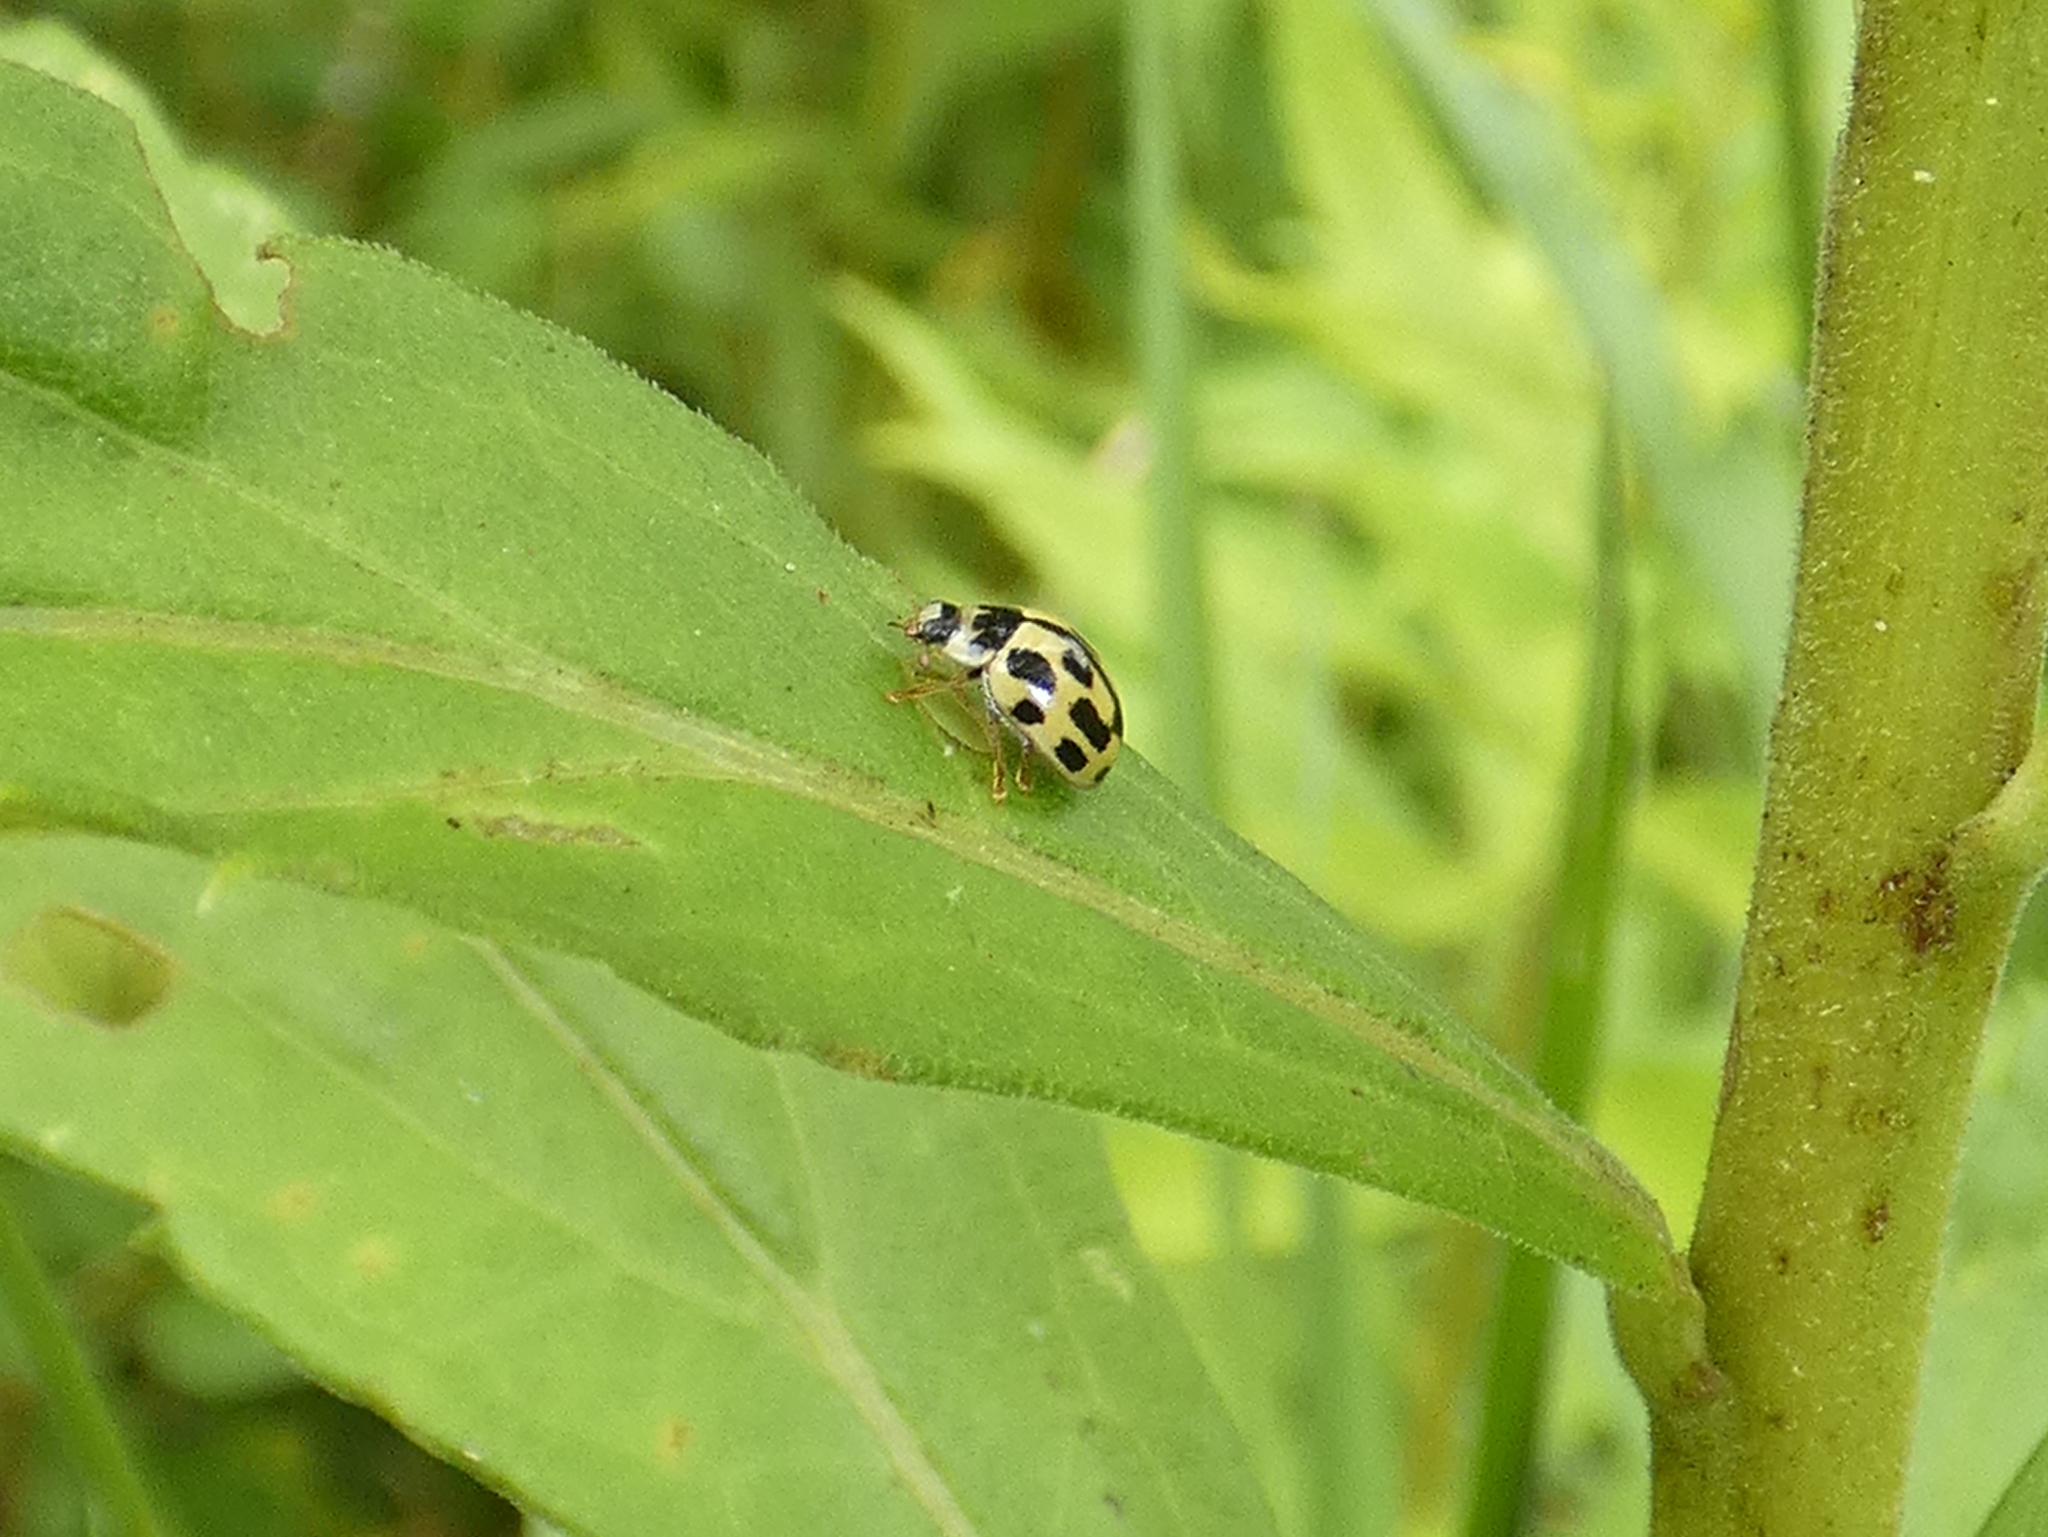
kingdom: Animalia
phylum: Arthropoda
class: Insecta
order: Coleoptera
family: Coccinellidae
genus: Propylaea
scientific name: Propylaea quatuordecimpunctata
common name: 14-spotted ladybird beetle
